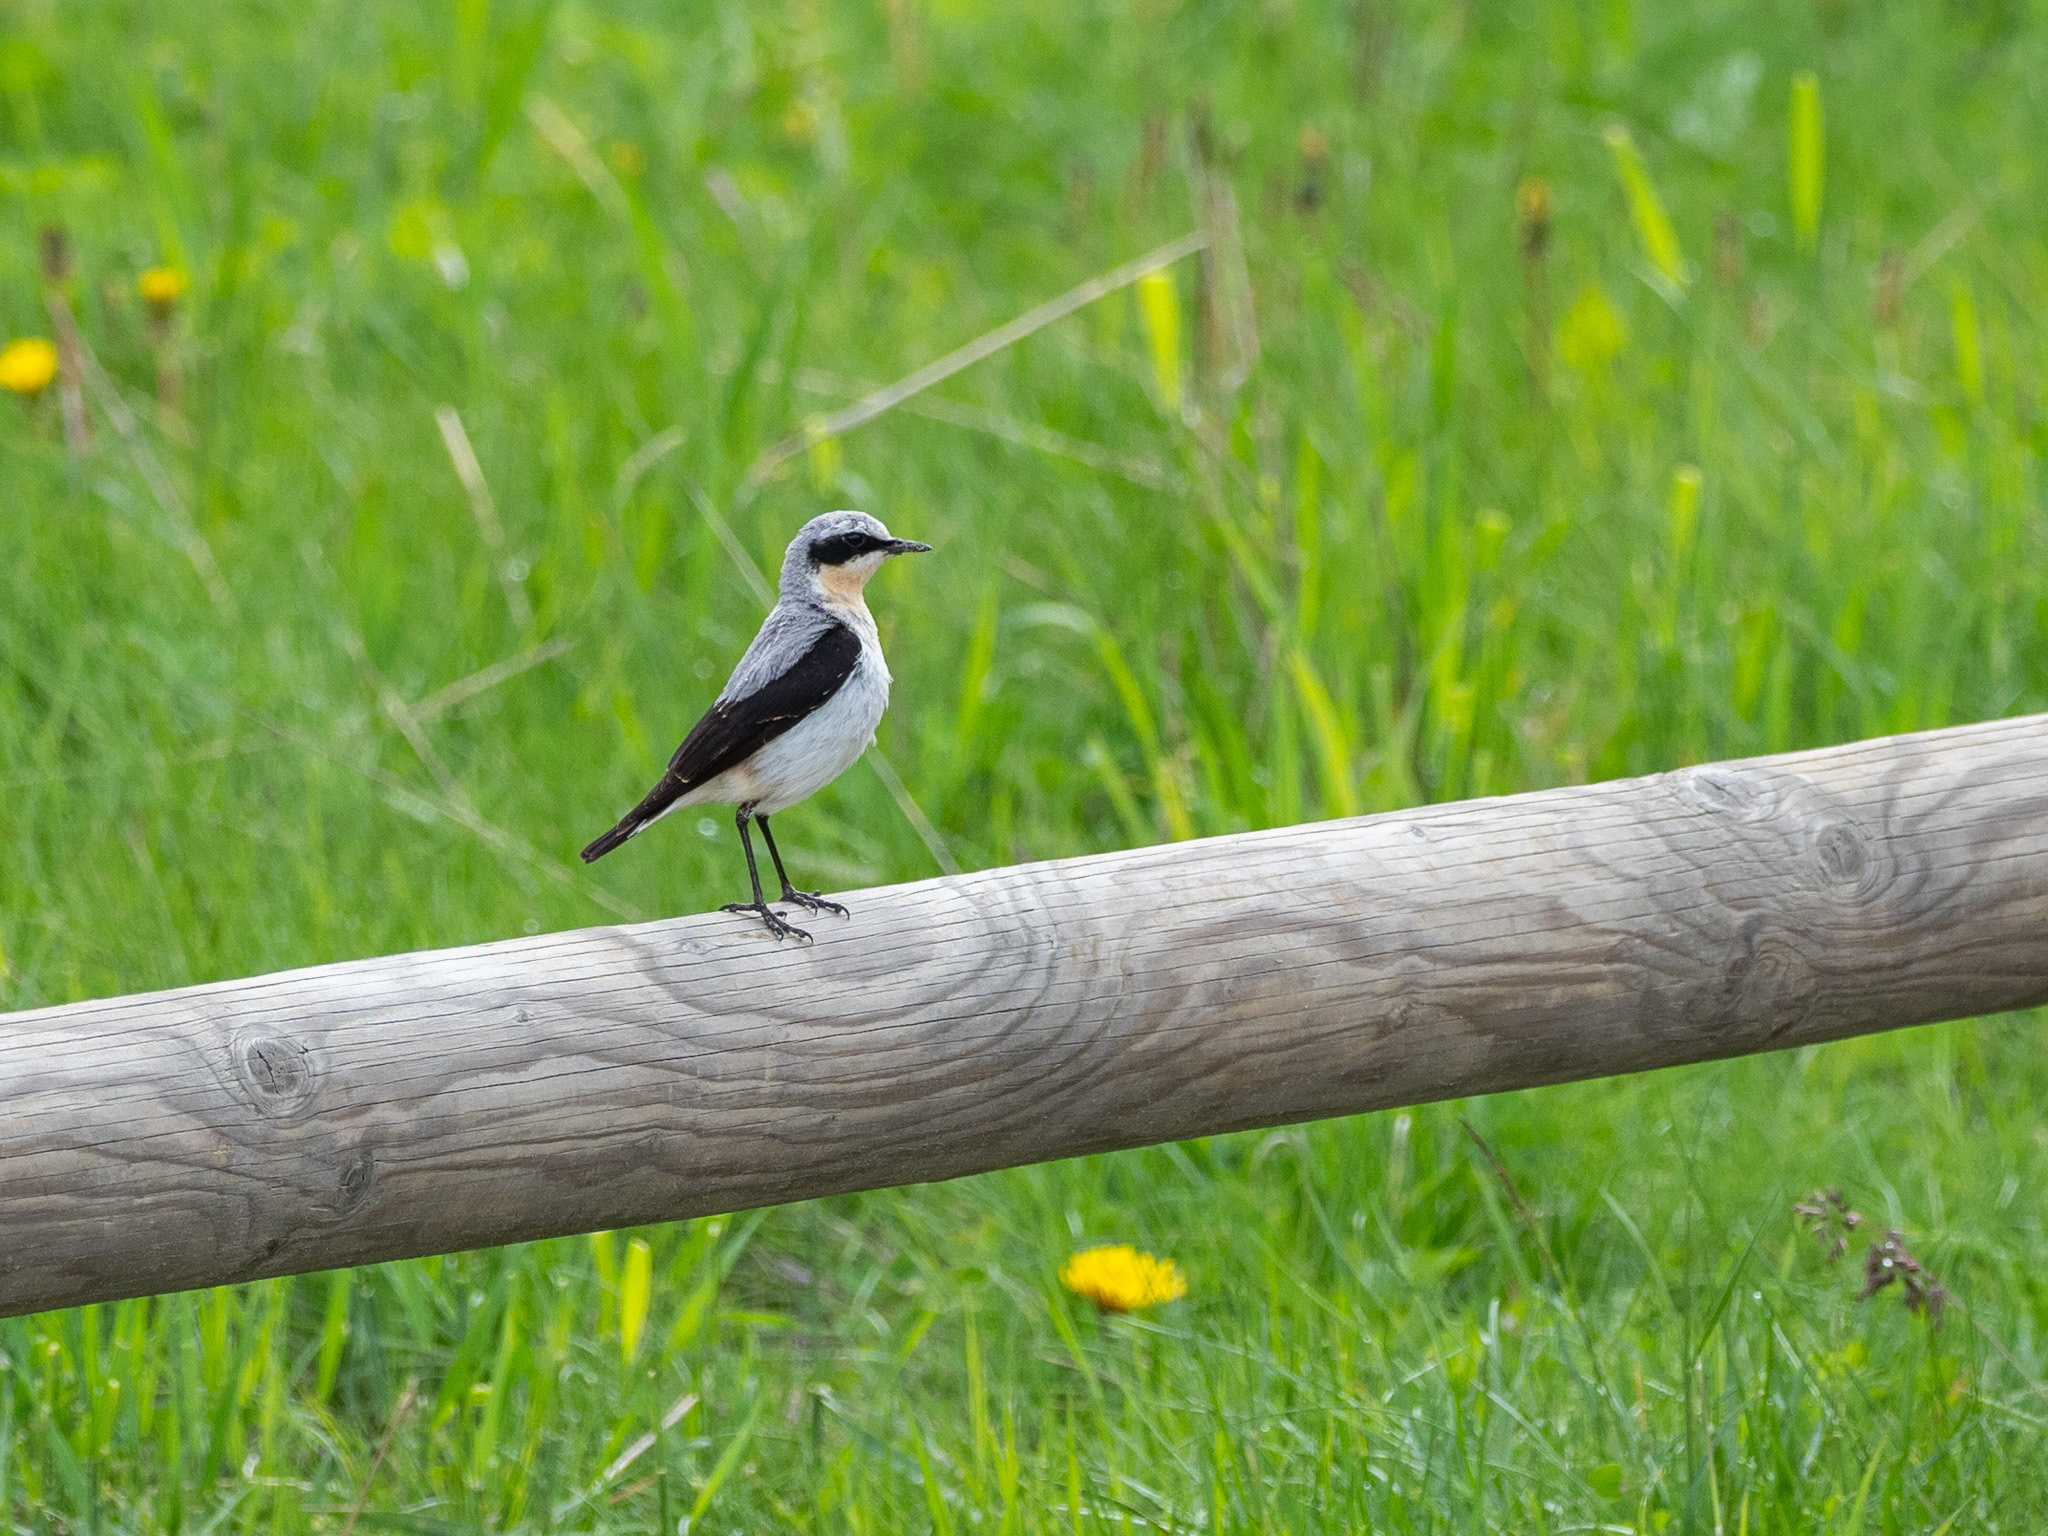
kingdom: Animalia
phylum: Chordata
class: Aves
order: Passeriformes
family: Muscicapidae
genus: Oenanthe
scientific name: Oenanthe oenanthe
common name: Northern wheatear
